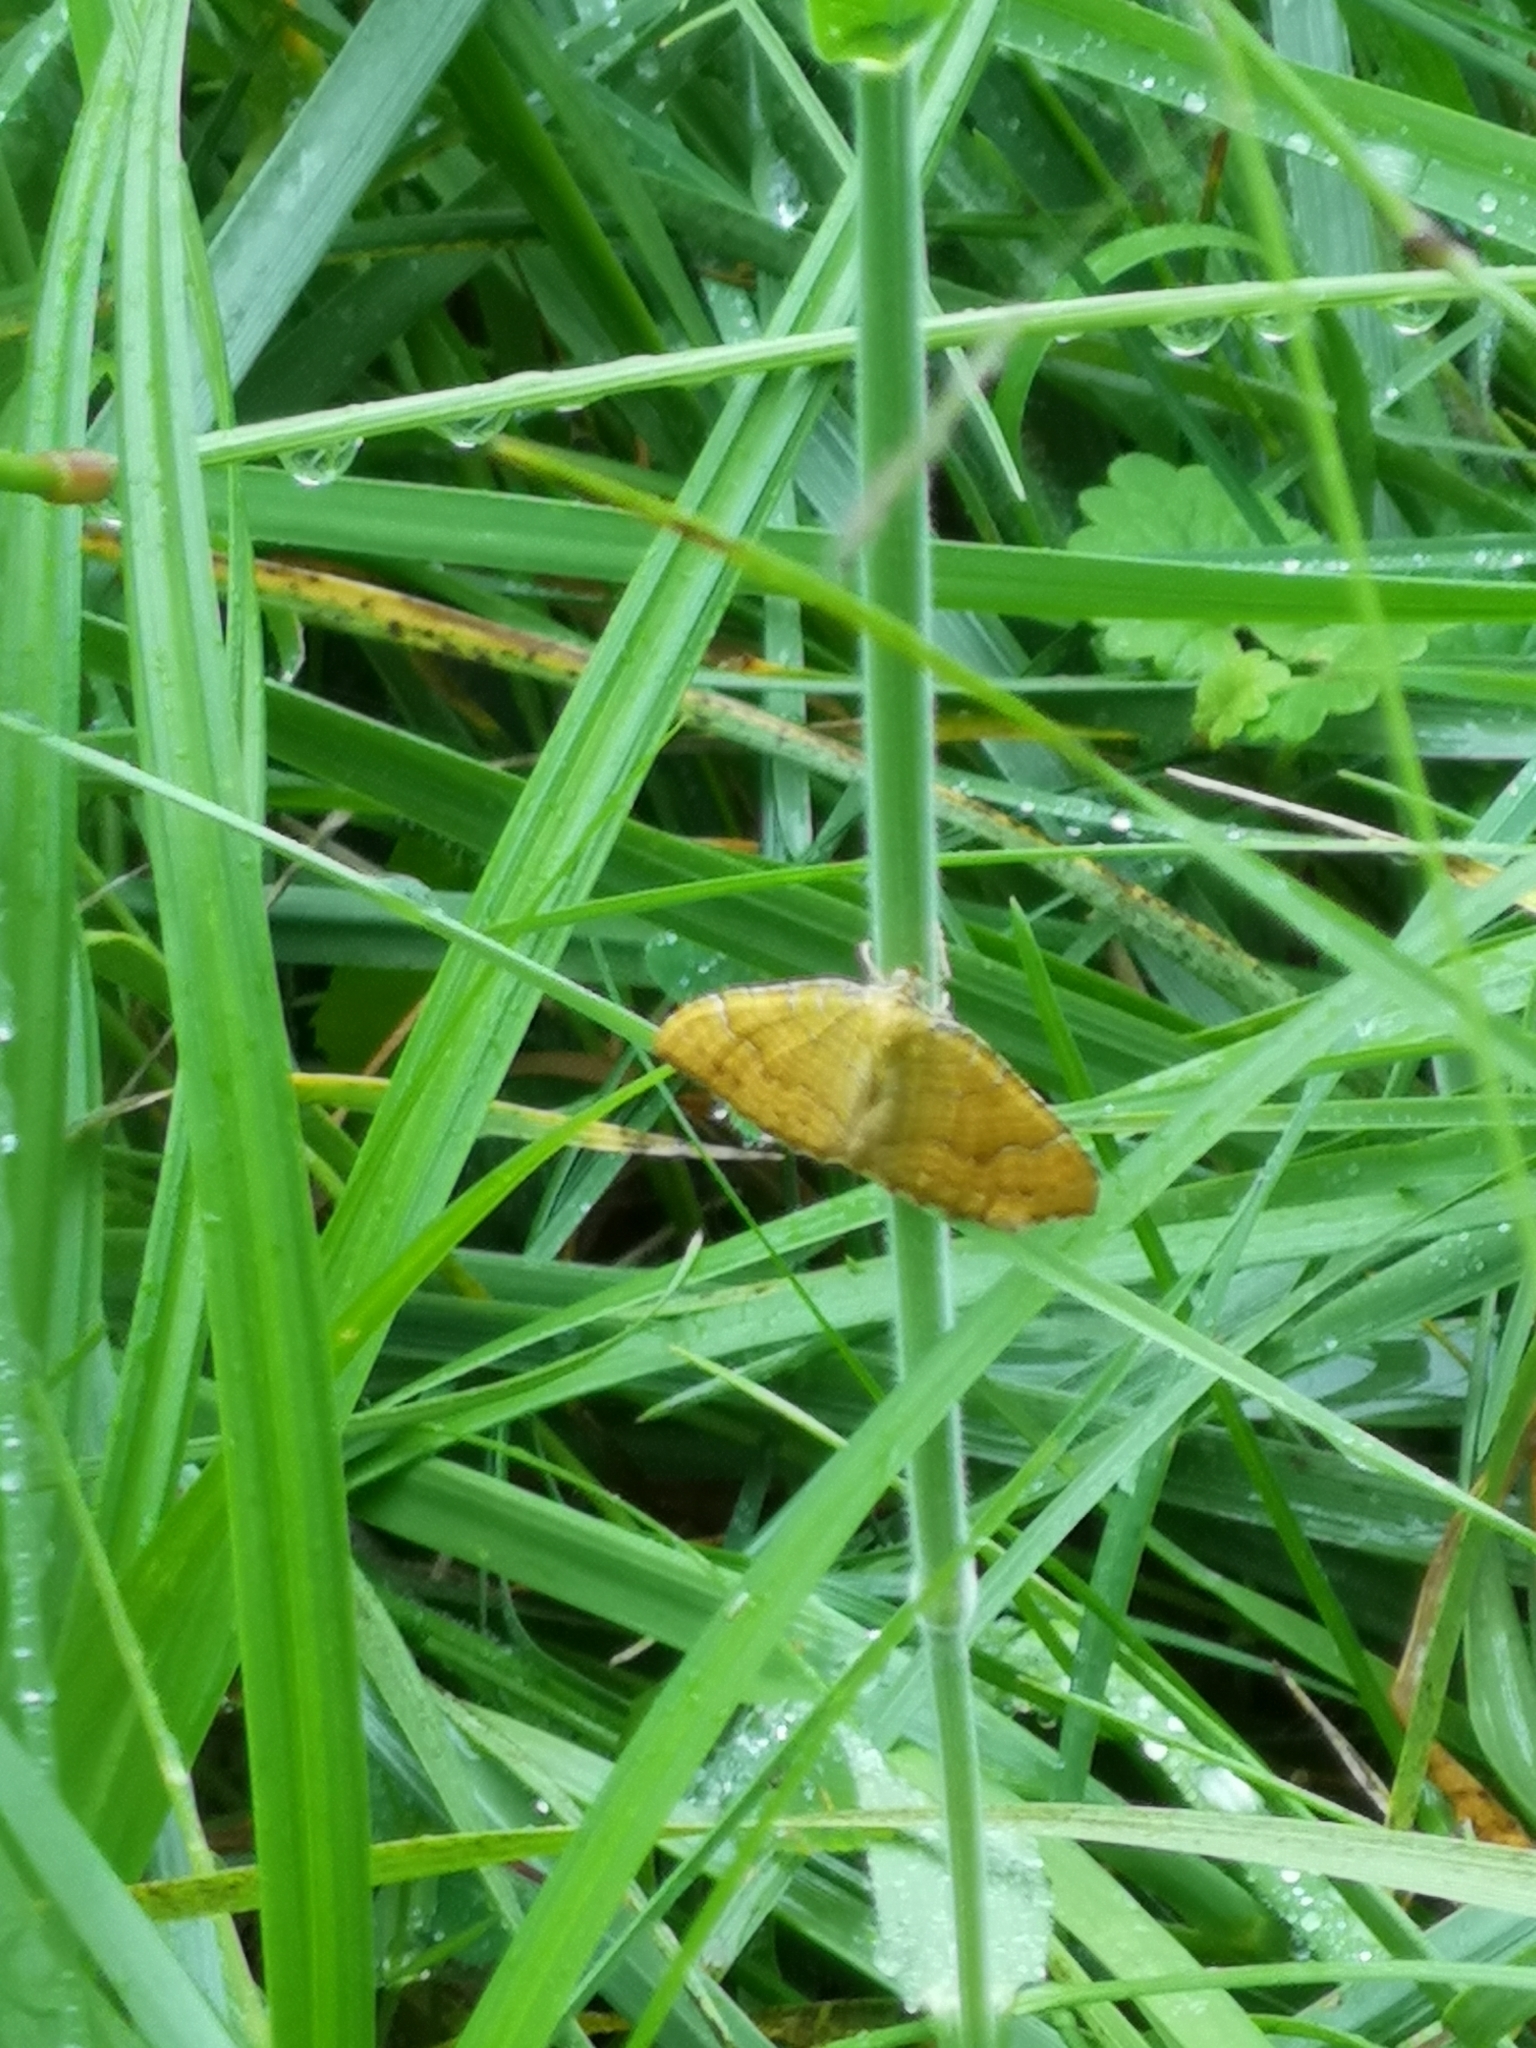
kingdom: Animalia
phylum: Arthropoda
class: Insecta
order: Lepidoptera
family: Geometridae
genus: Camptogramma
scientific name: Camptogramma bilineata
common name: Yellow shell
